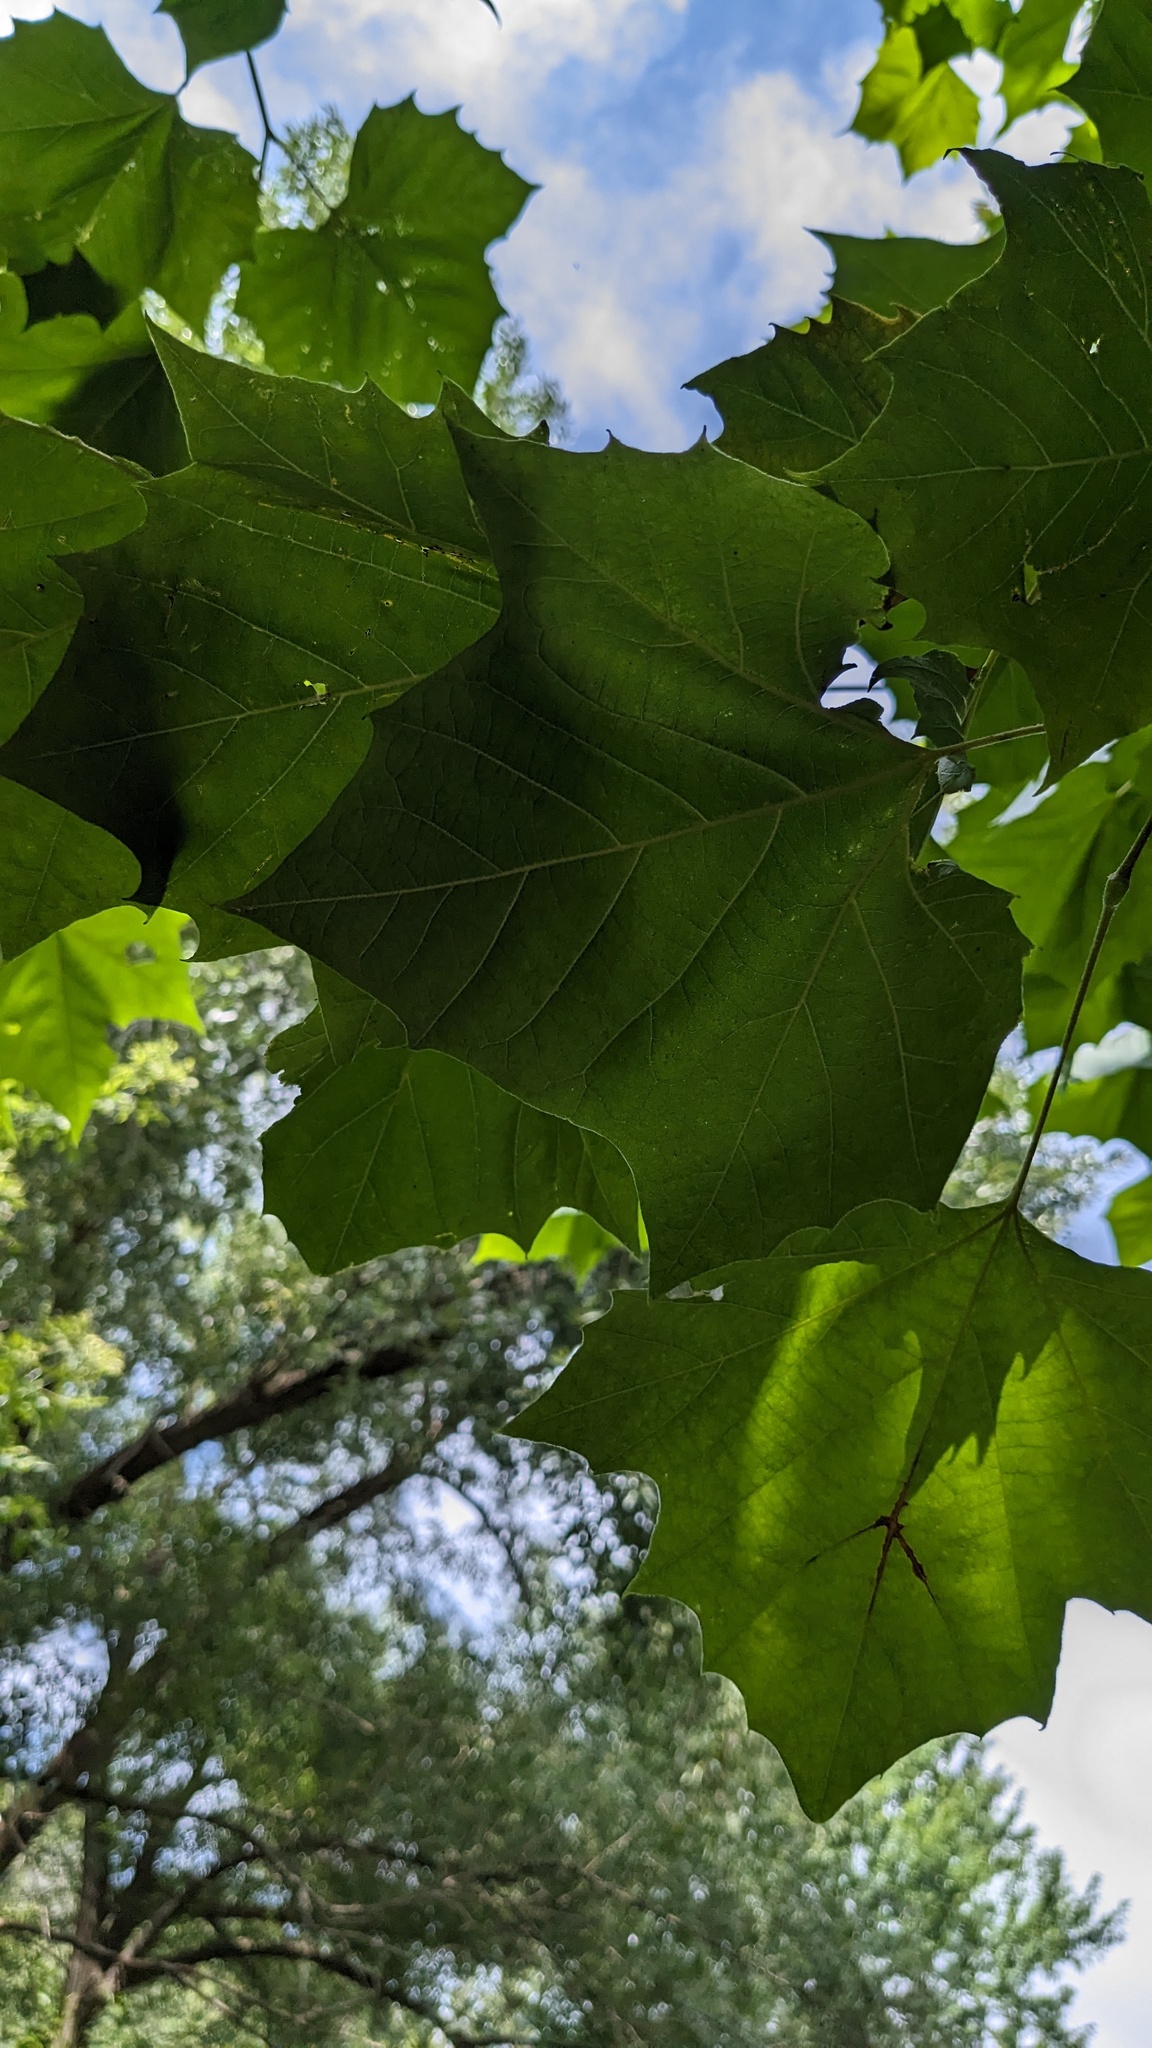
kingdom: Plantae
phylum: Tracheophyta
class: Magnoliopsida
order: Proteales
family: Platanaceae
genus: Platanus
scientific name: Platanus occidentalis
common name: American sycamore
